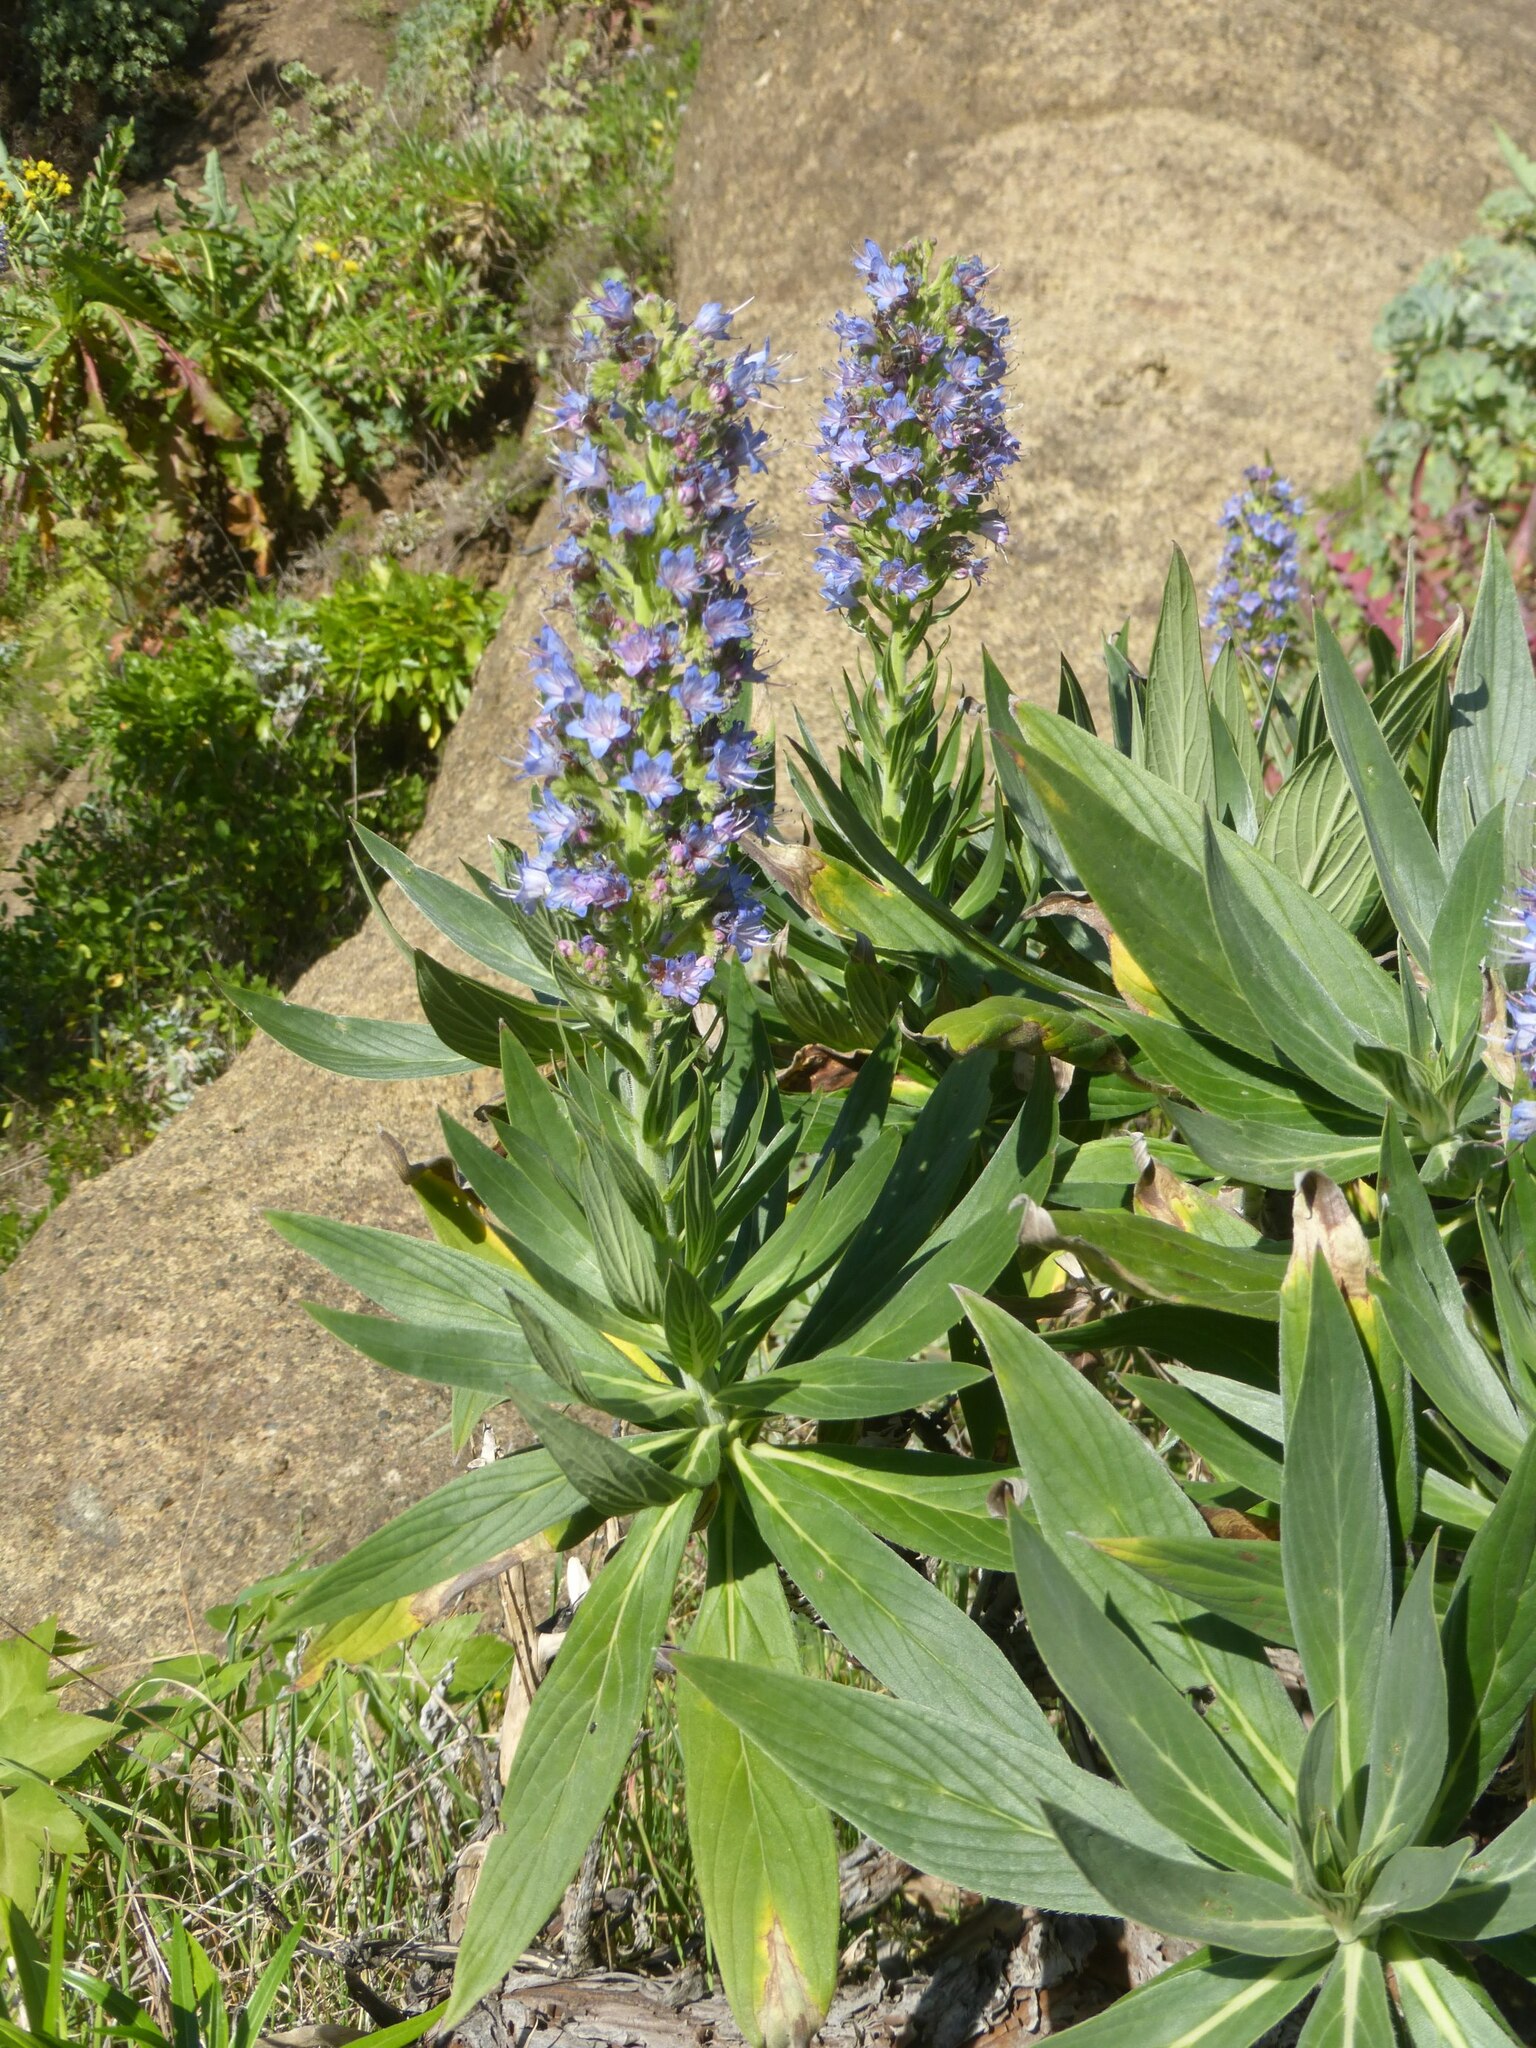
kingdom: Plantae
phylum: Tracheophyta
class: Magnoliopsida
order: Boraginales
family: Boraginaceae
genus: Echium
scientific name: Echium acanthocarpum
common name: Blue bugloss
